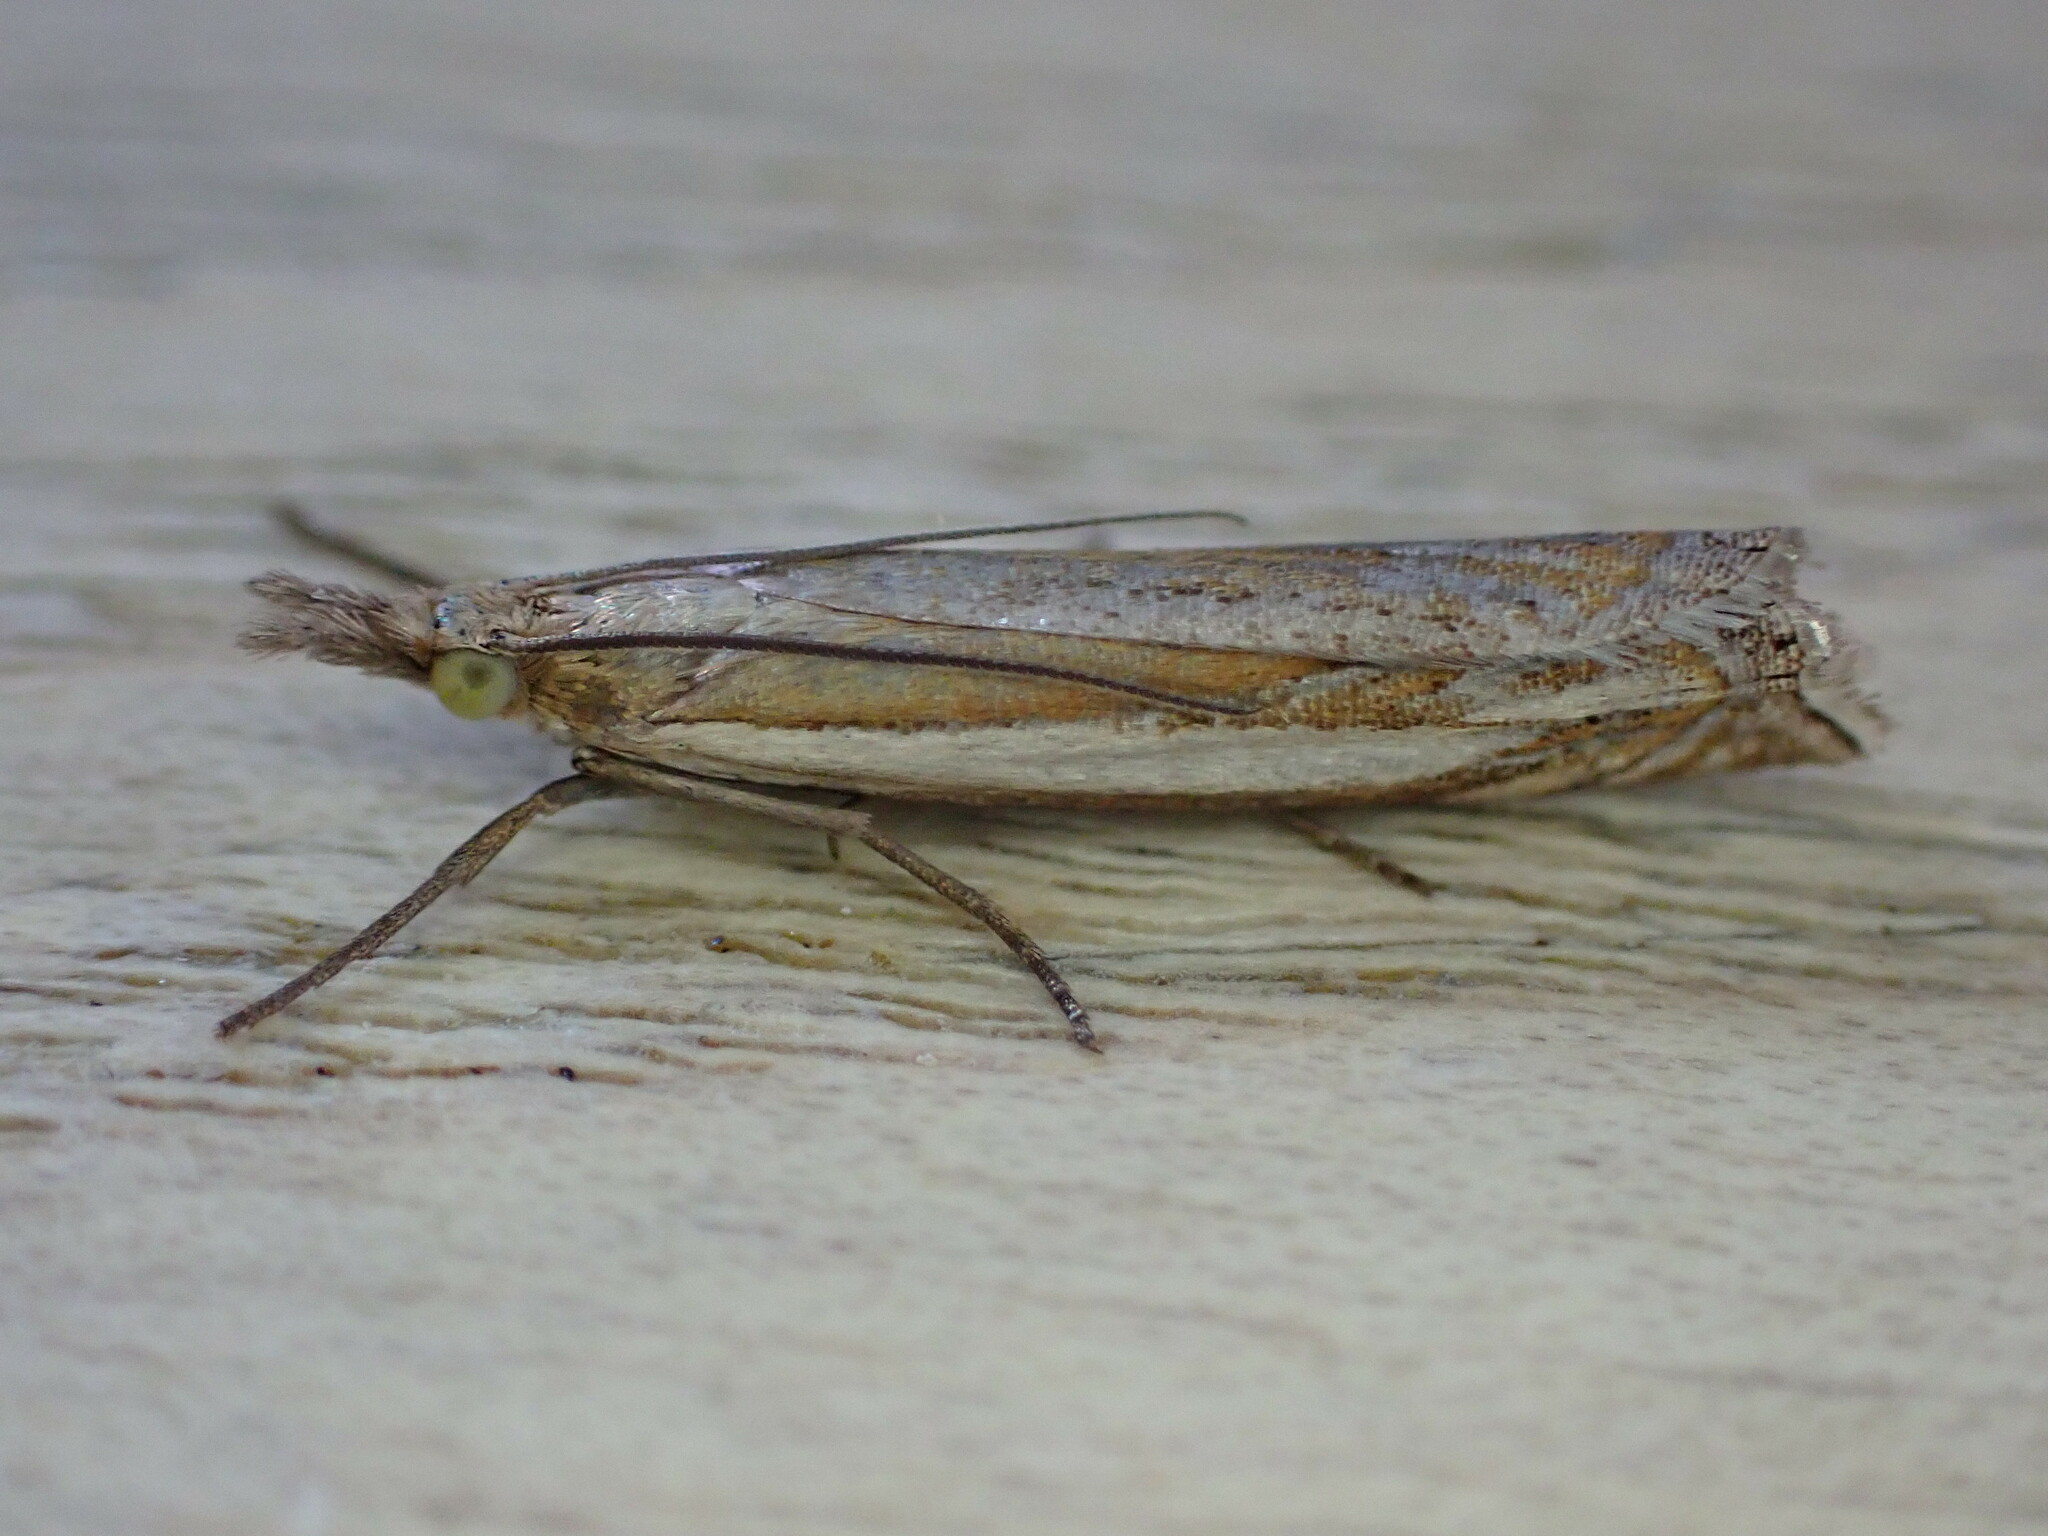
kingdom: Animalia
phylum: Arthropoda
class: Insecta
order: Lepidoptera
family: Crambidae
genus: Crambus
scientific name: Crambus pascuella
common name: Inlaid grass-veneer
